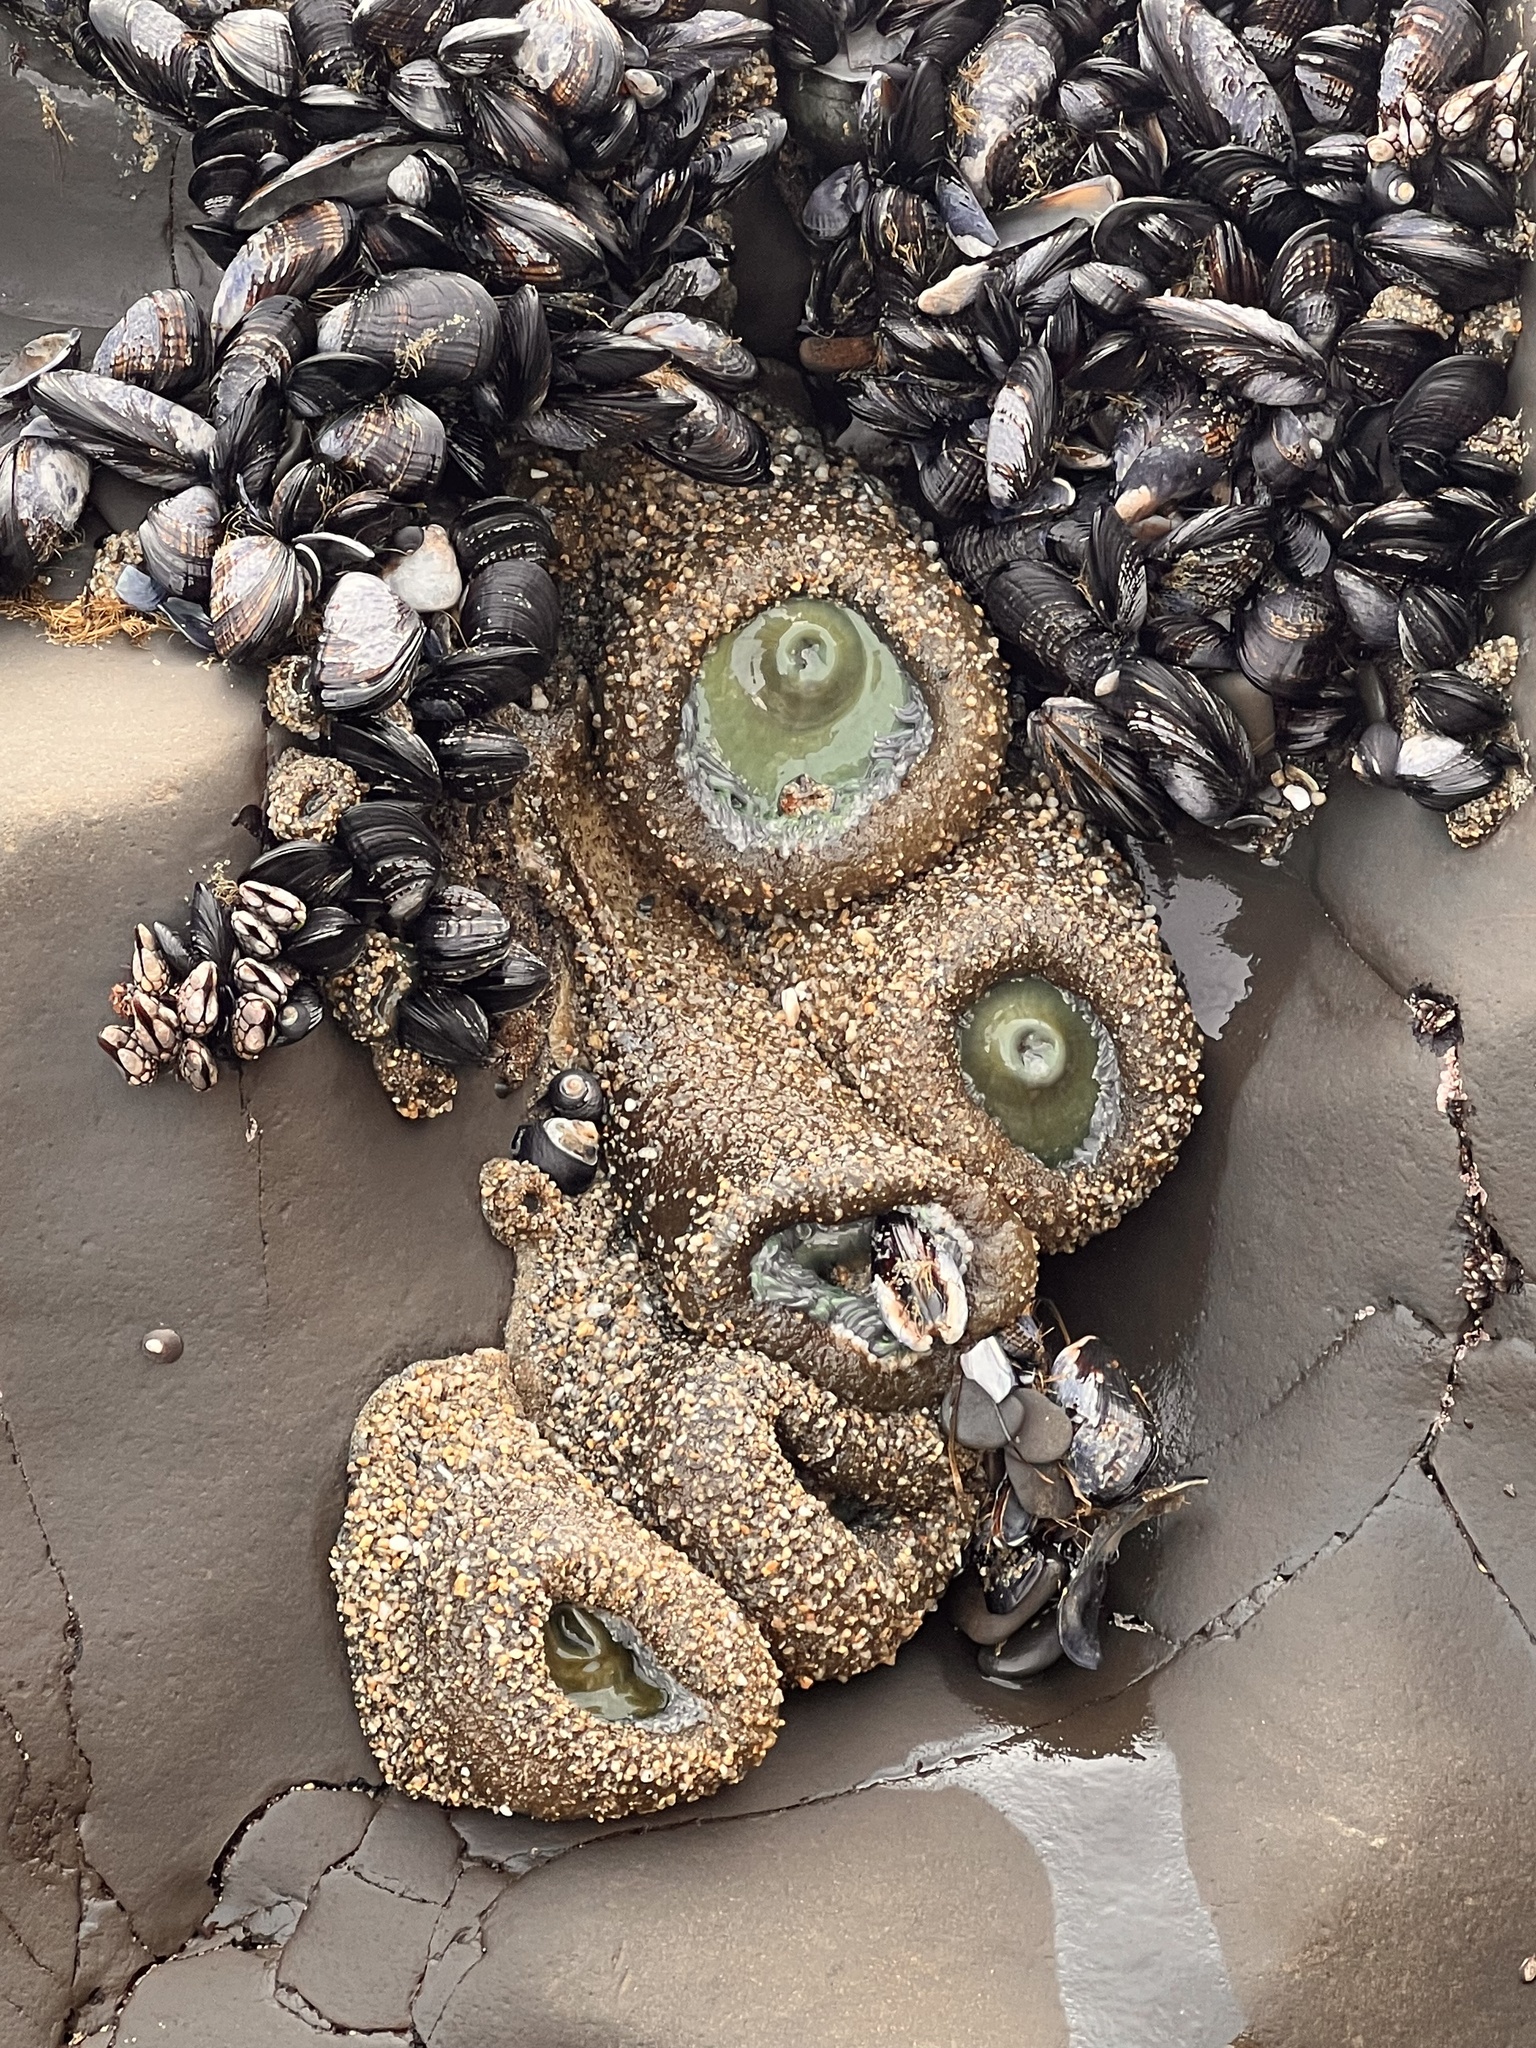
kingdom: Animalia
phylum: Cnidaria
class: Anthozoa
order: Actiniaria
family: Actiniidae
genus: Anthopleura
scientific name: Anthopleura xanthogrammica
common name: Giant green anemone
